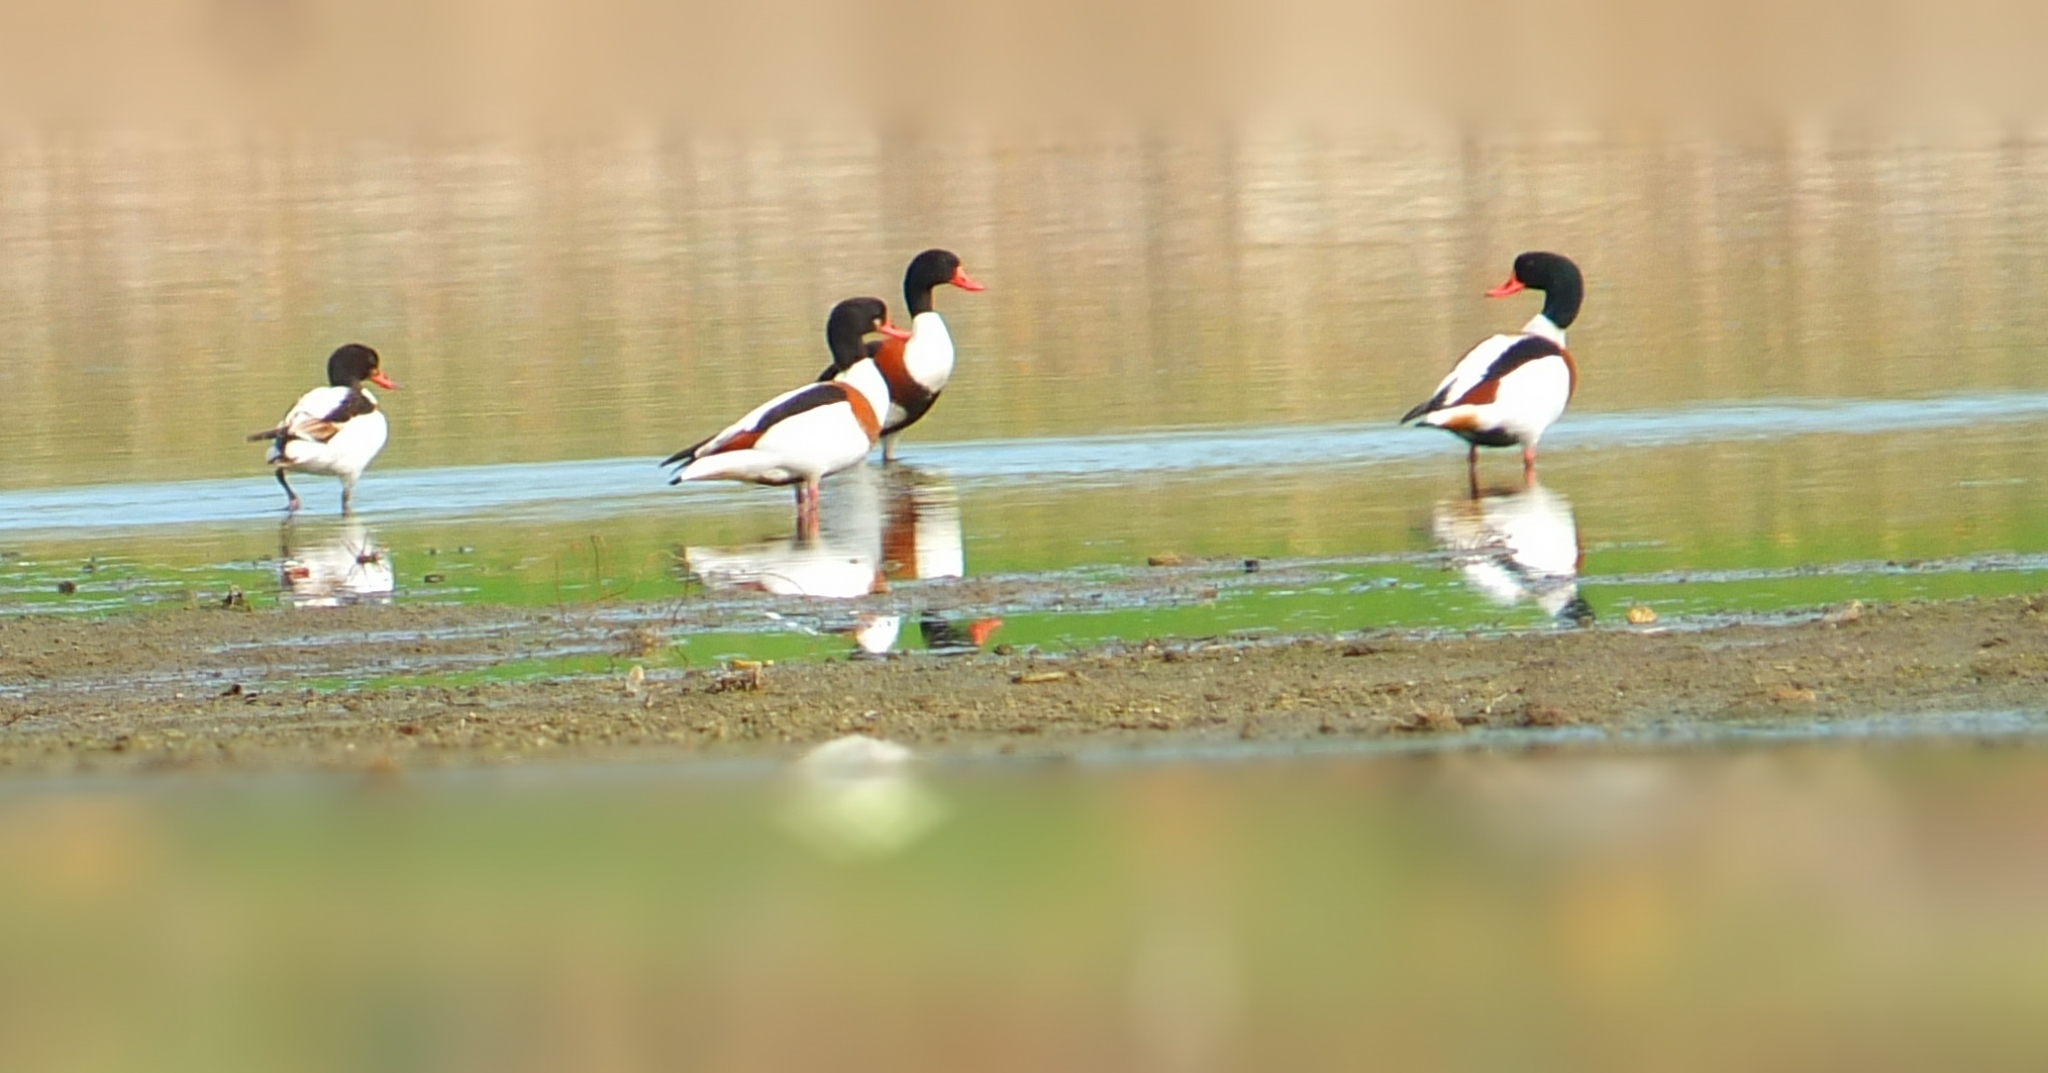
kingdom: Animalia
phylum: Chordata
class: Aves
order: Anseriformes
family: Anatidae
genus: Tadorna
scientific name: Tadorna tadorna
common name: Common shelduck
